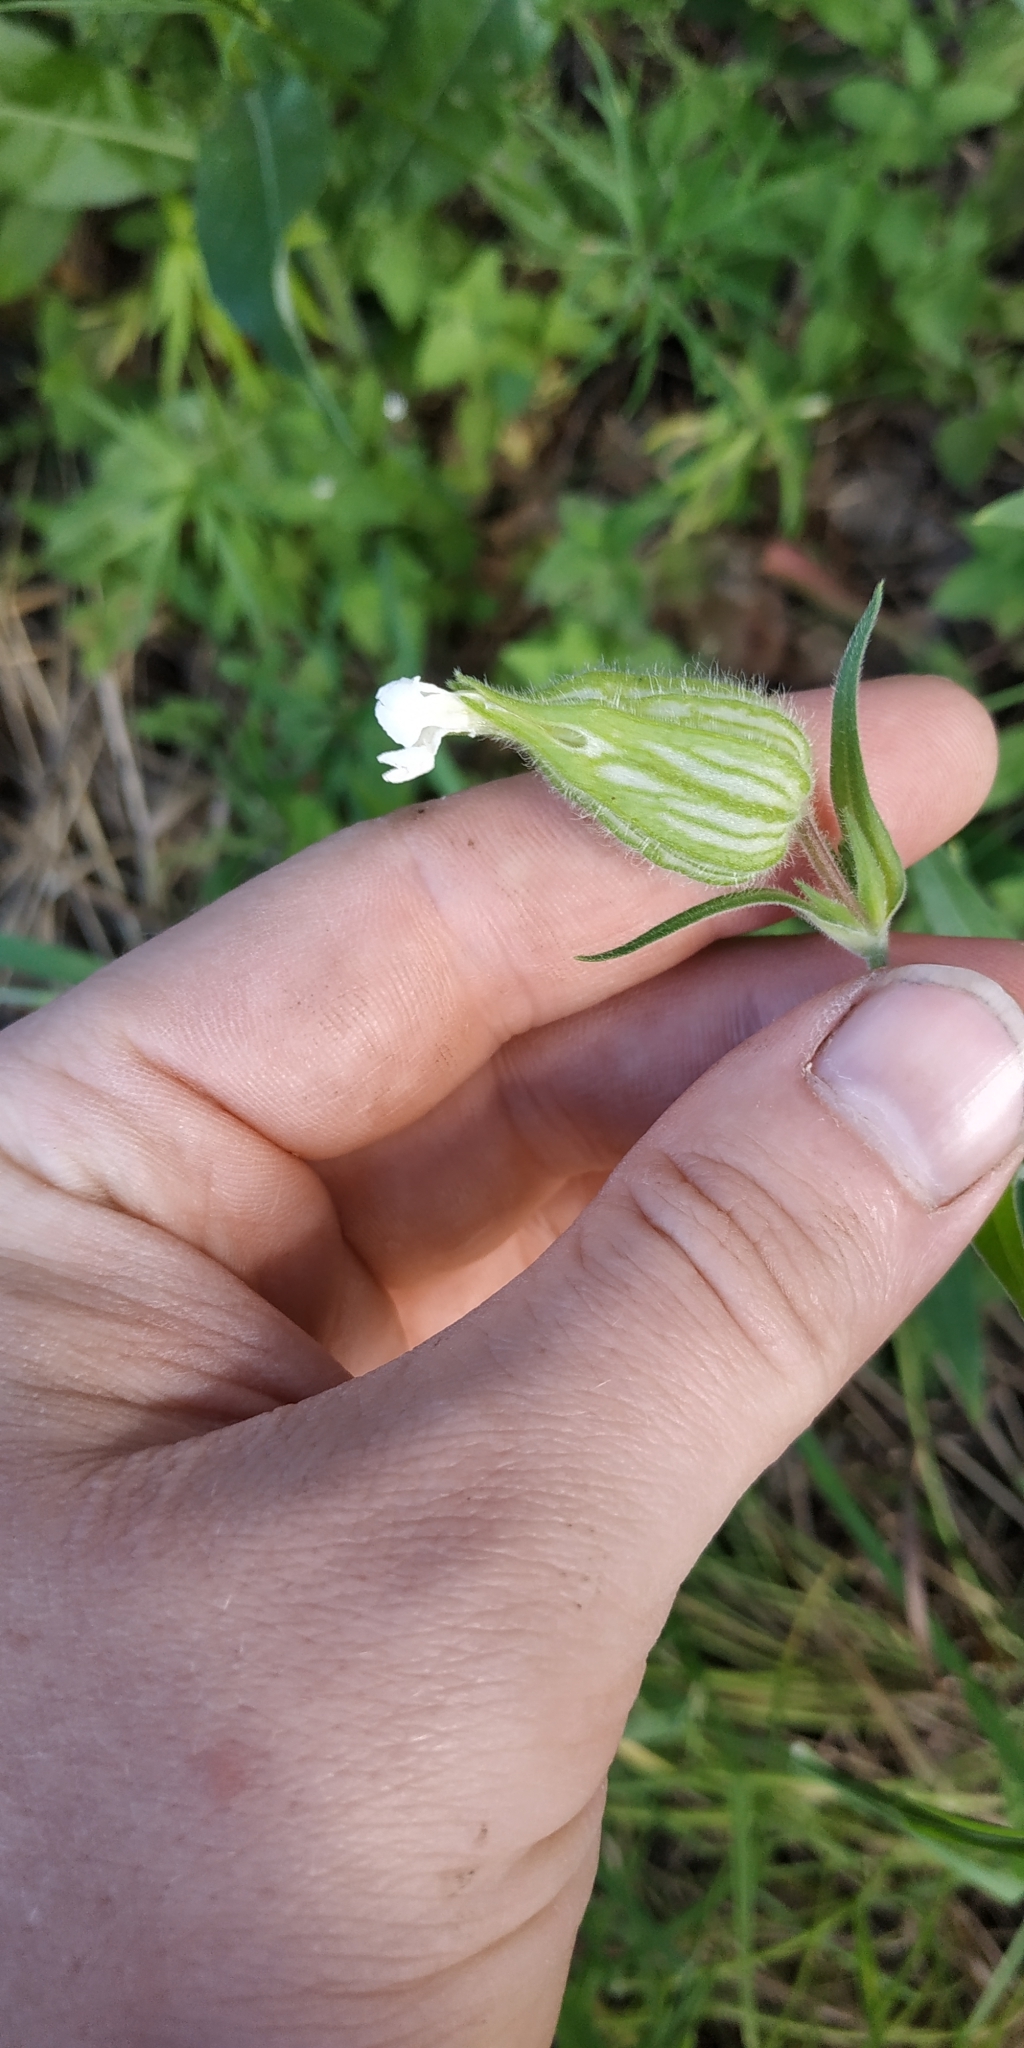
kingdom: Plantae
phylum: Tracheophyta
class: Magnoliopsida
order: Caryophyllales
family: Caryophyllaceae
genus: Silene
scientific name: Silene latifolia
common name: White campion
